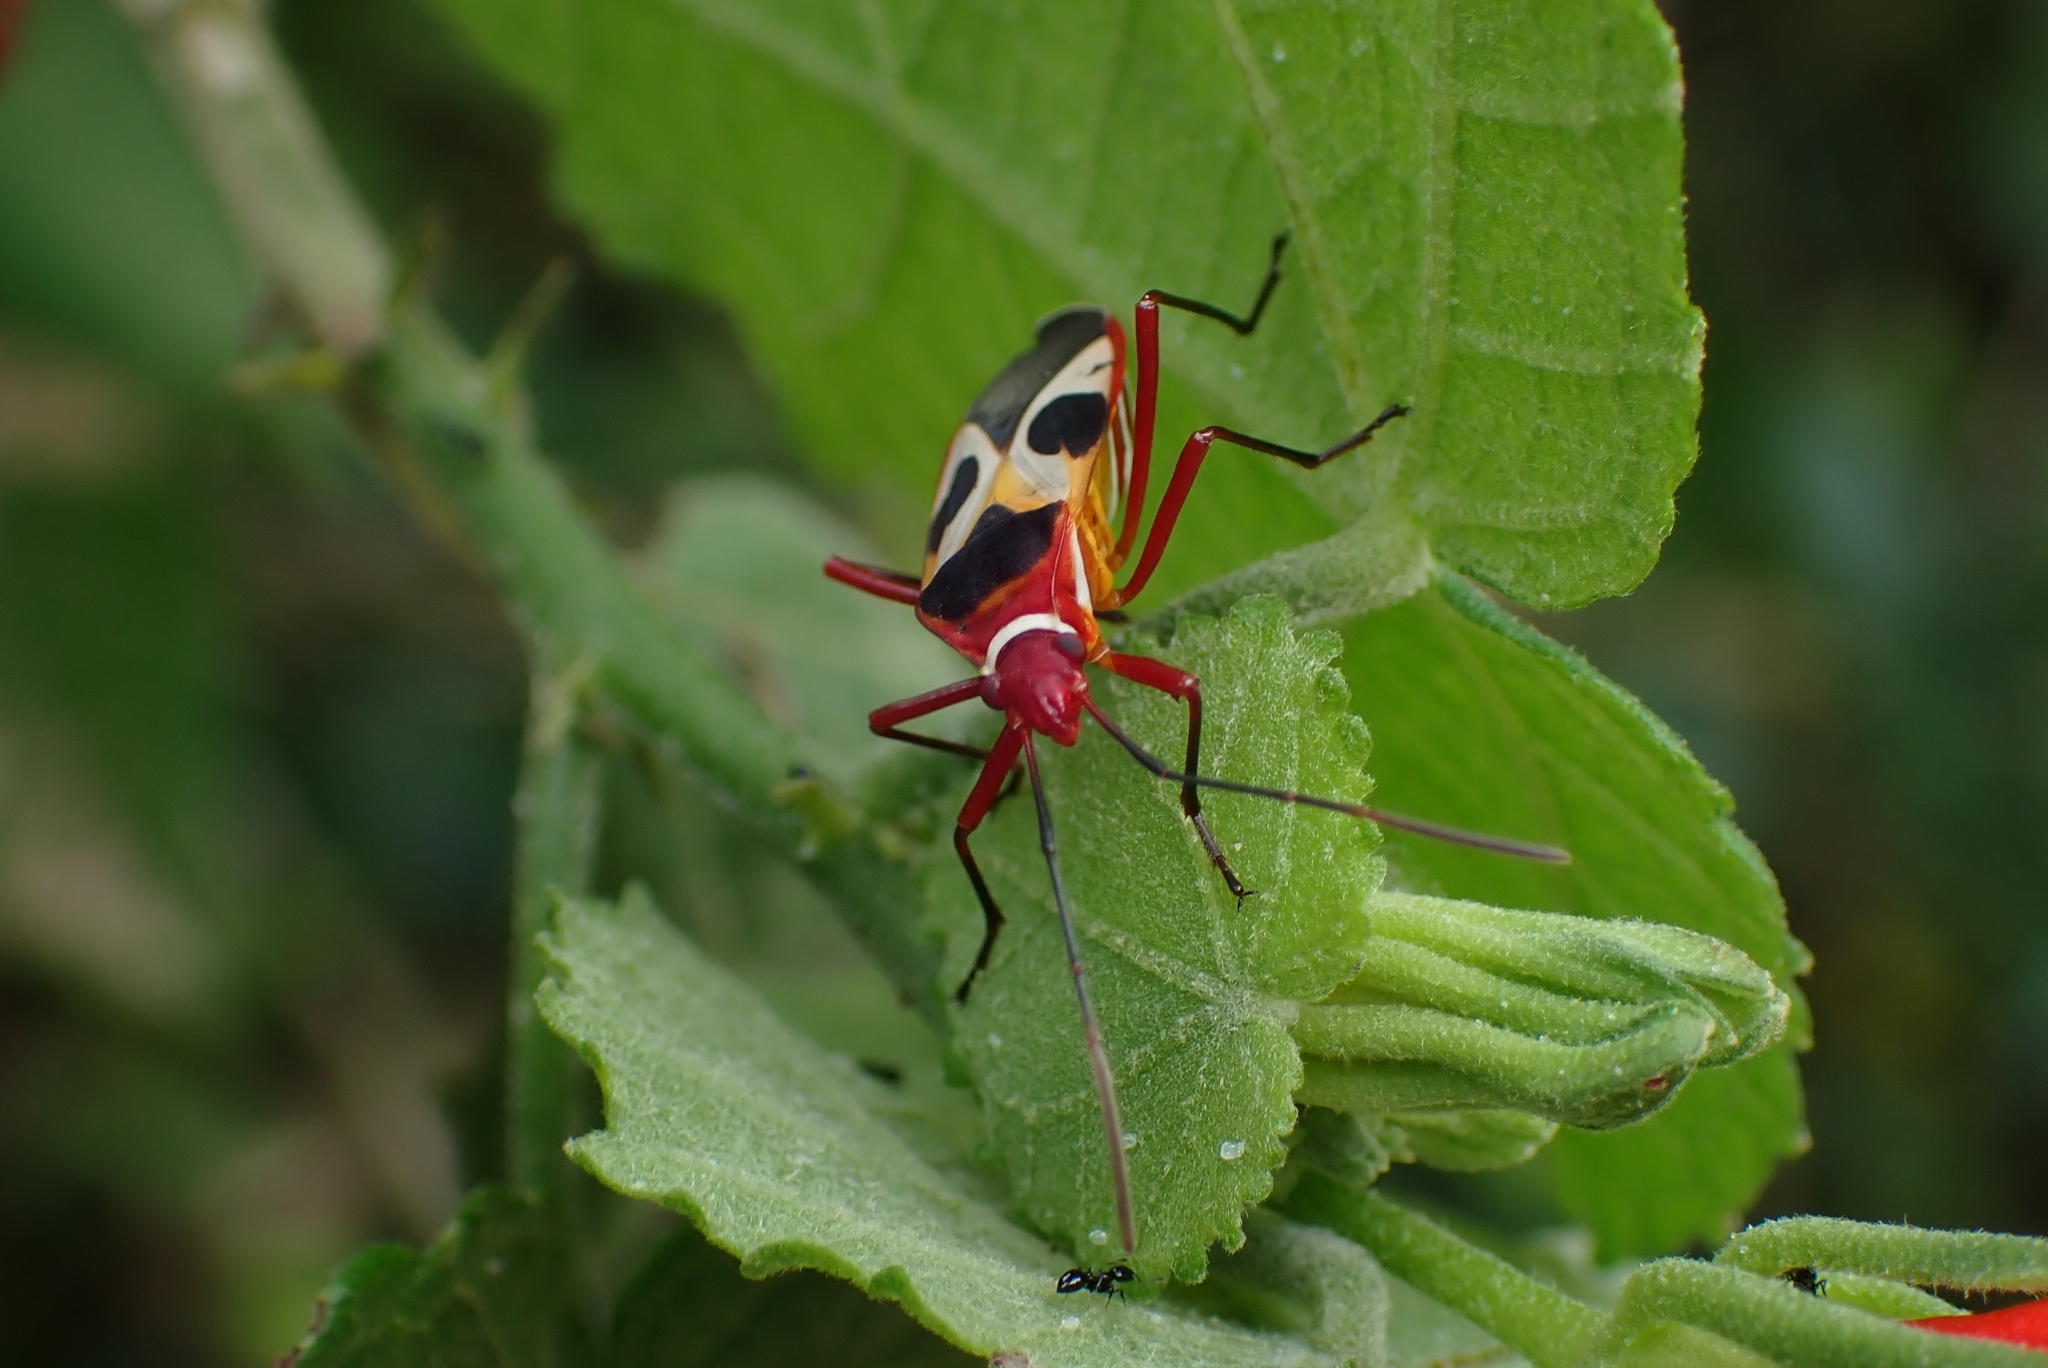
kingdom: Animalia
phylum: Arthropoda
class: Insecta
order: Hemiptera
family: Pyrrhocoridae
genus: Dysdercus
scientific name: Dysdercus concinnus
